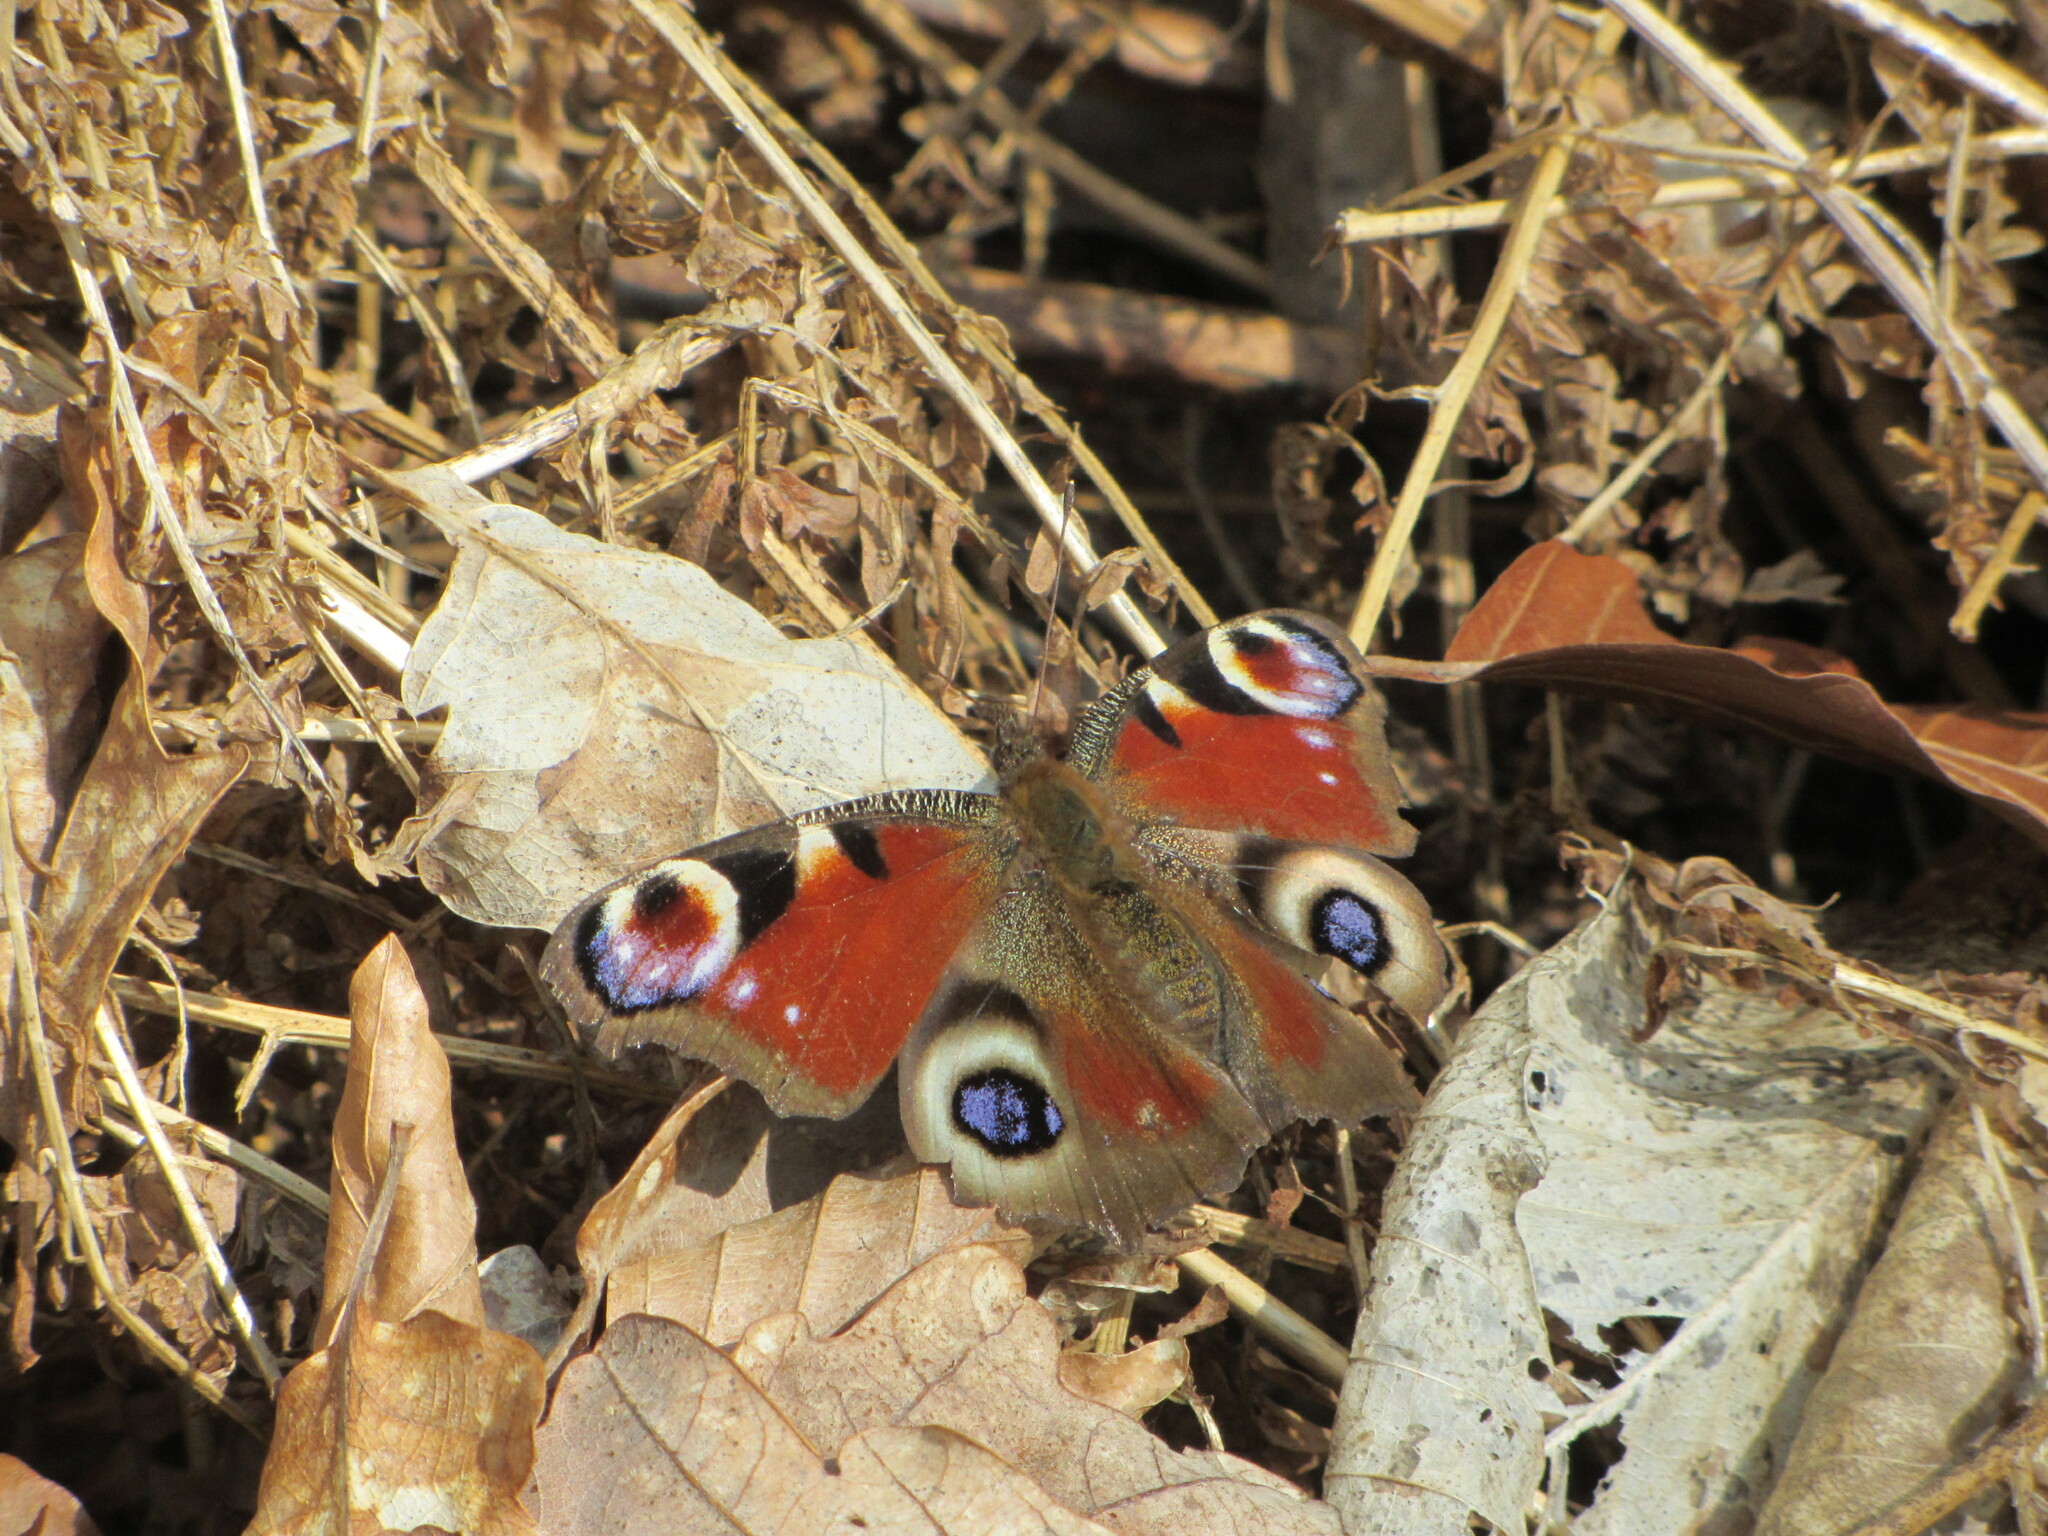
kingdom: Animalia
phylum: Arthropoda
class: Insecta
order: Lepidoptera
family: Nymphalidae
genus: Aglais
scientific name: Aglais io
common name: Peacock
